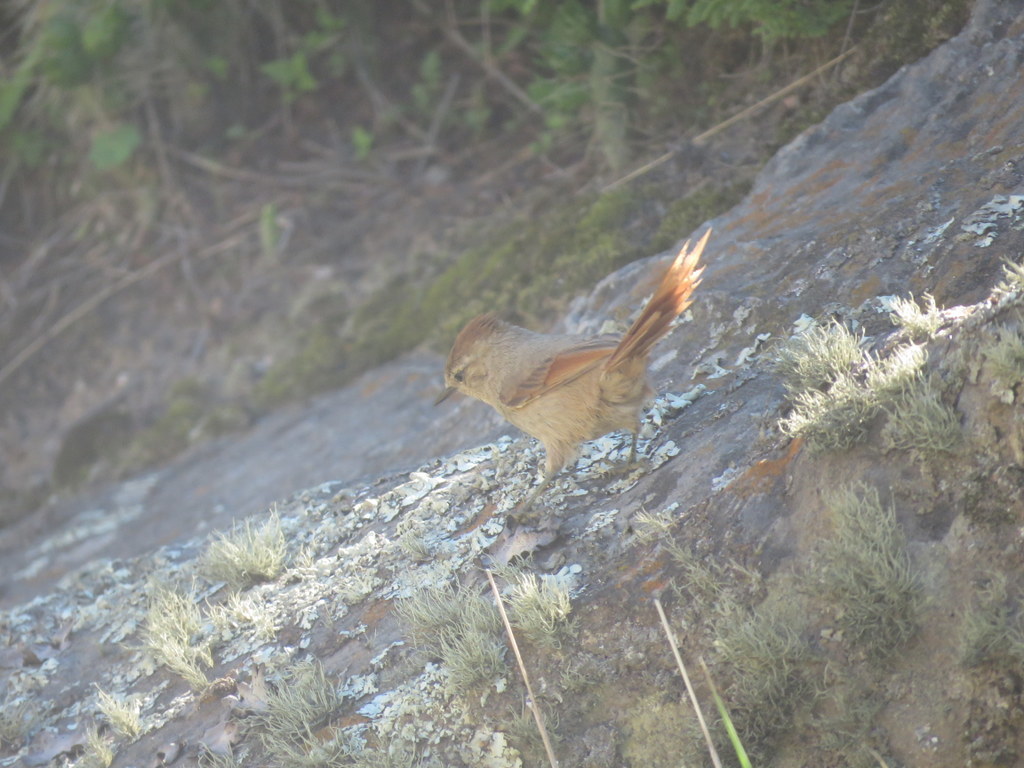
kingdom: Animalia
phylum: Chordata
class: Aves
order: Passeriformes
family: Furnariidae
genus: Leptasthenura
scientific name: Leptasthenura fuliginiceps
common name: Brown-capped tit-spinetail
